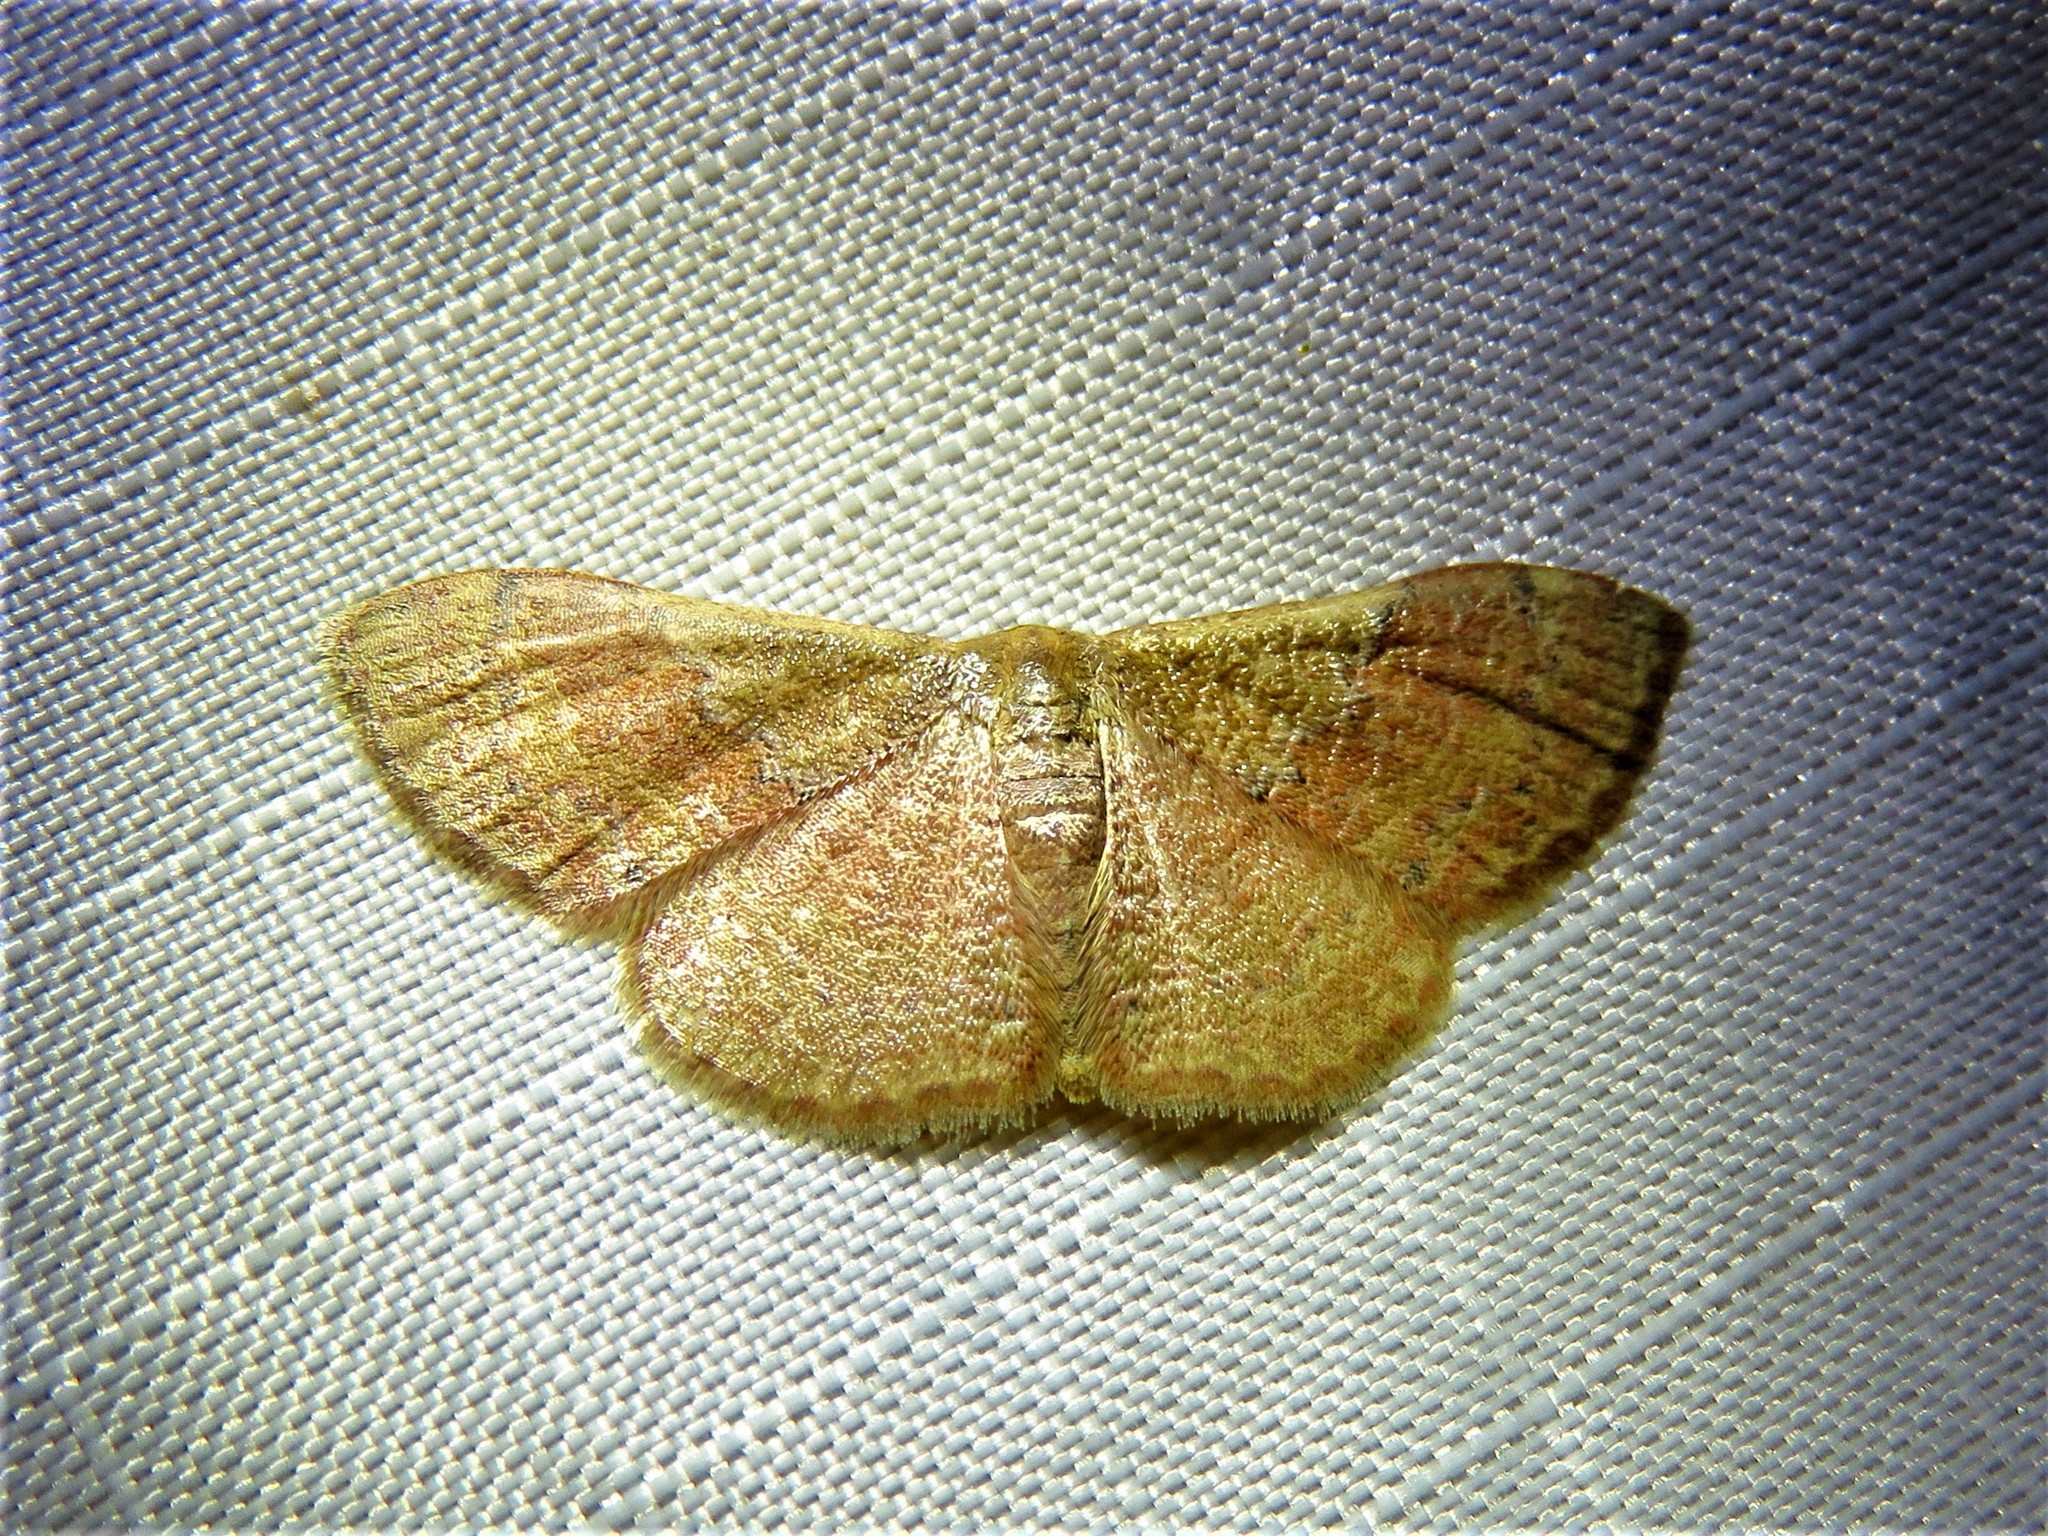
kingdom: Animalia
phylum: Arthropoda
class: Insecta
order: Lepidoptera
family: Geometridae
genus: Leptostales
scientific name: Leptostales ferruminaria
